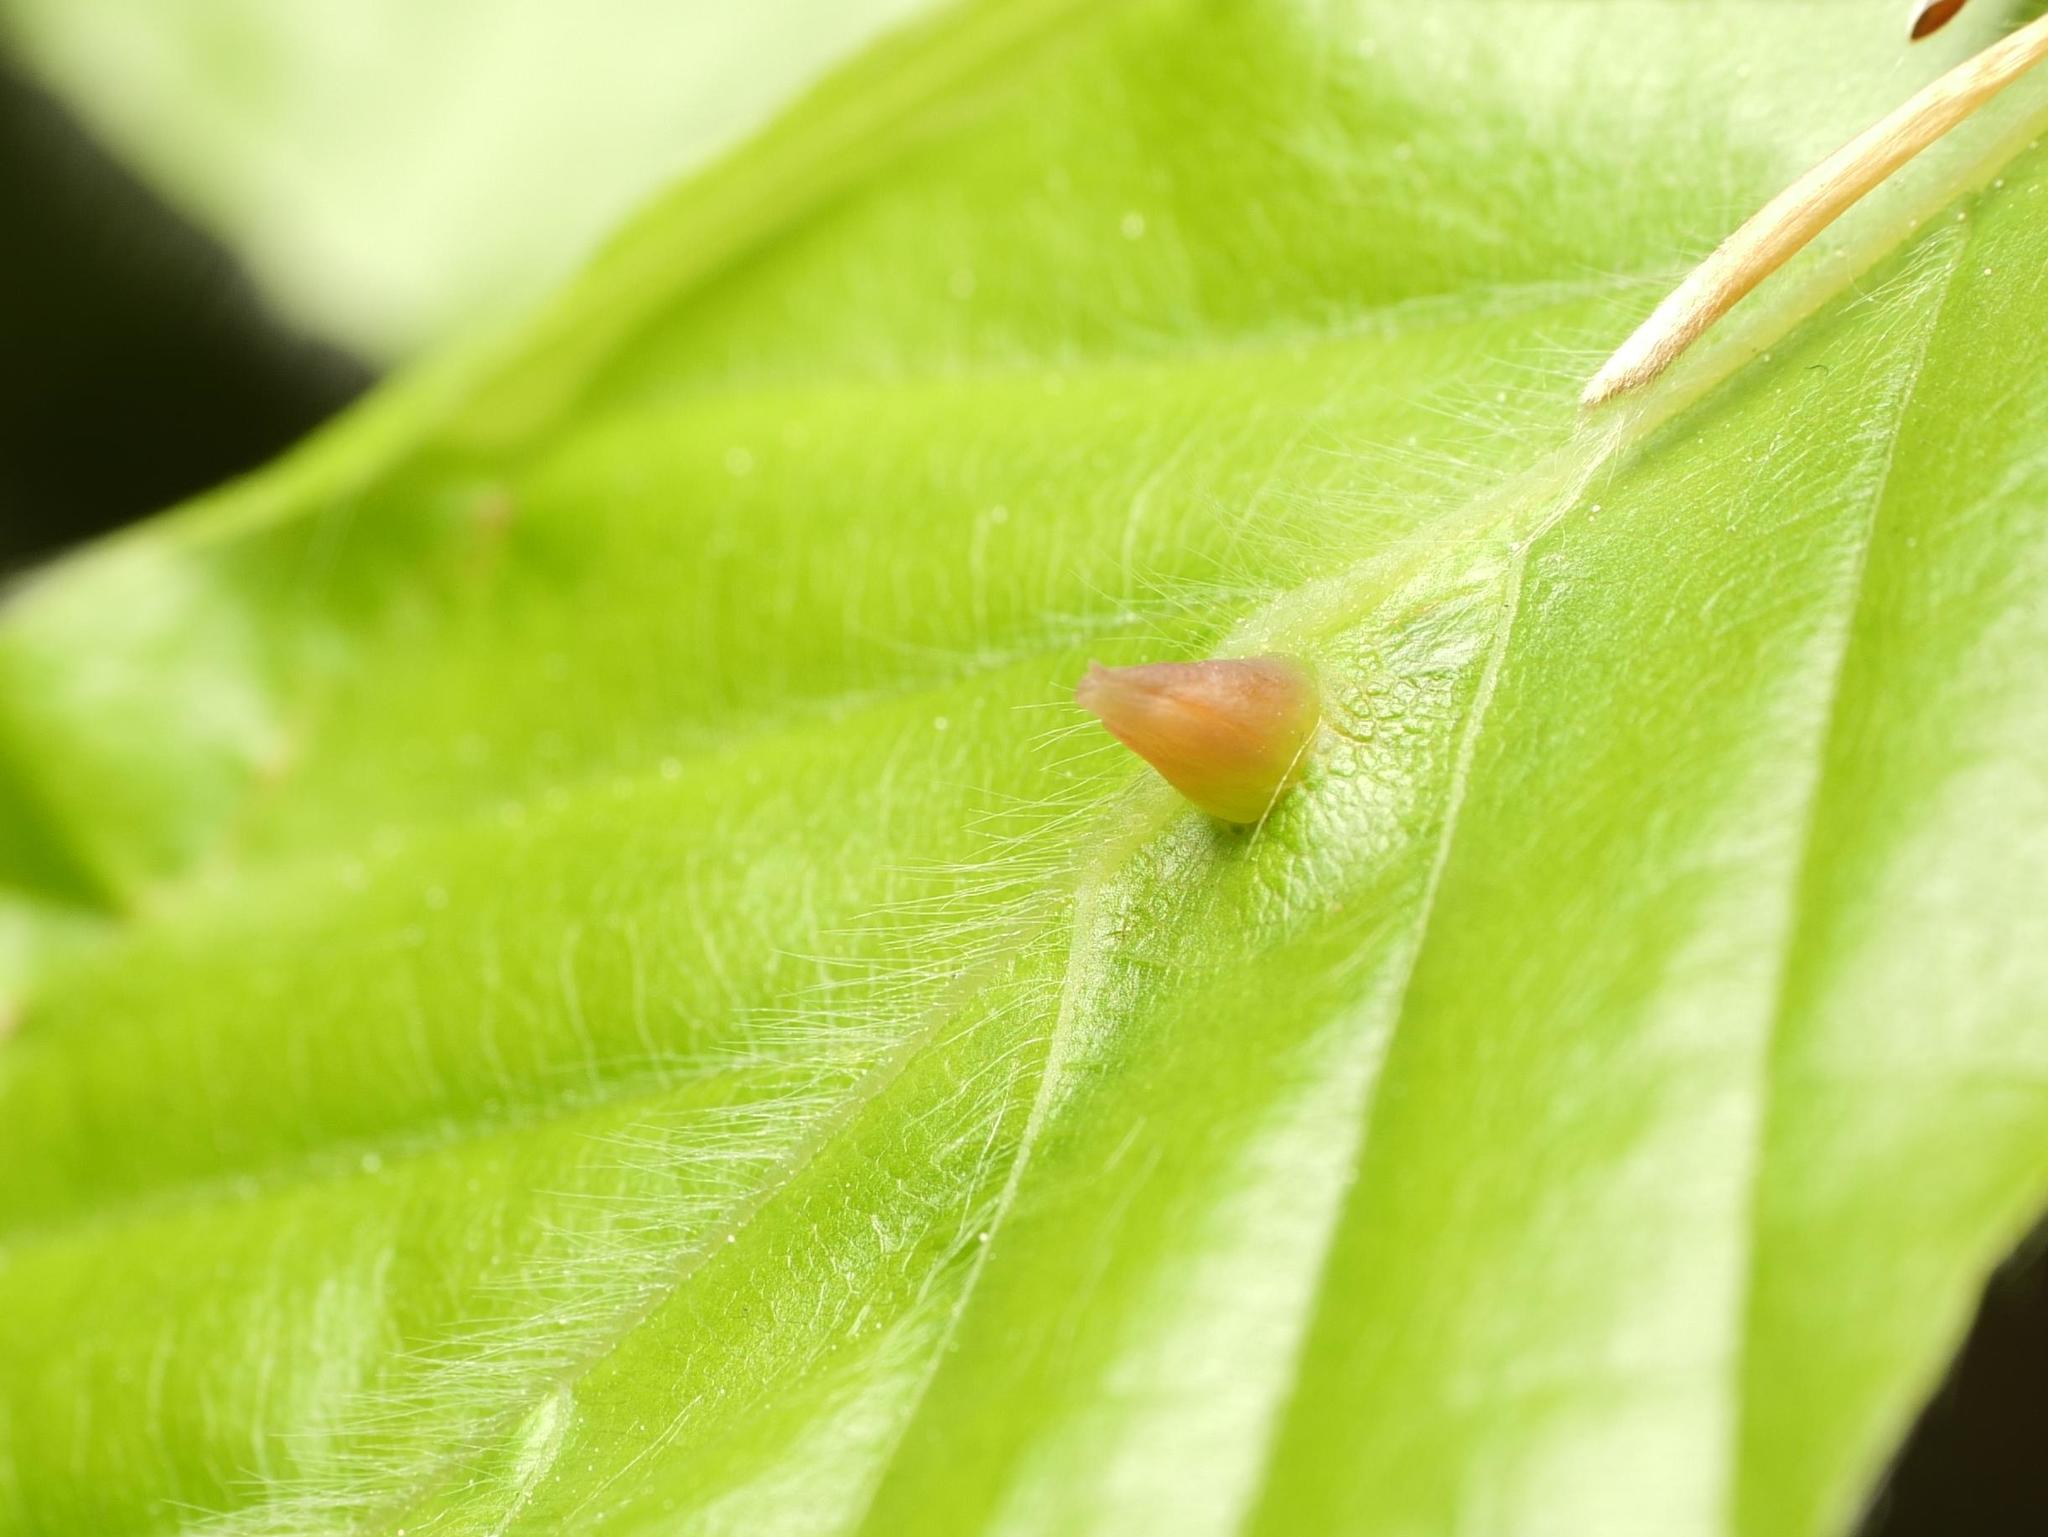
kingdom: Animalia
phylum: Arthropoda
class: Insecta
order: Diptera
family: Cecidomyiidae
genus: Mikiola
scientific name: Mikiola fagi
